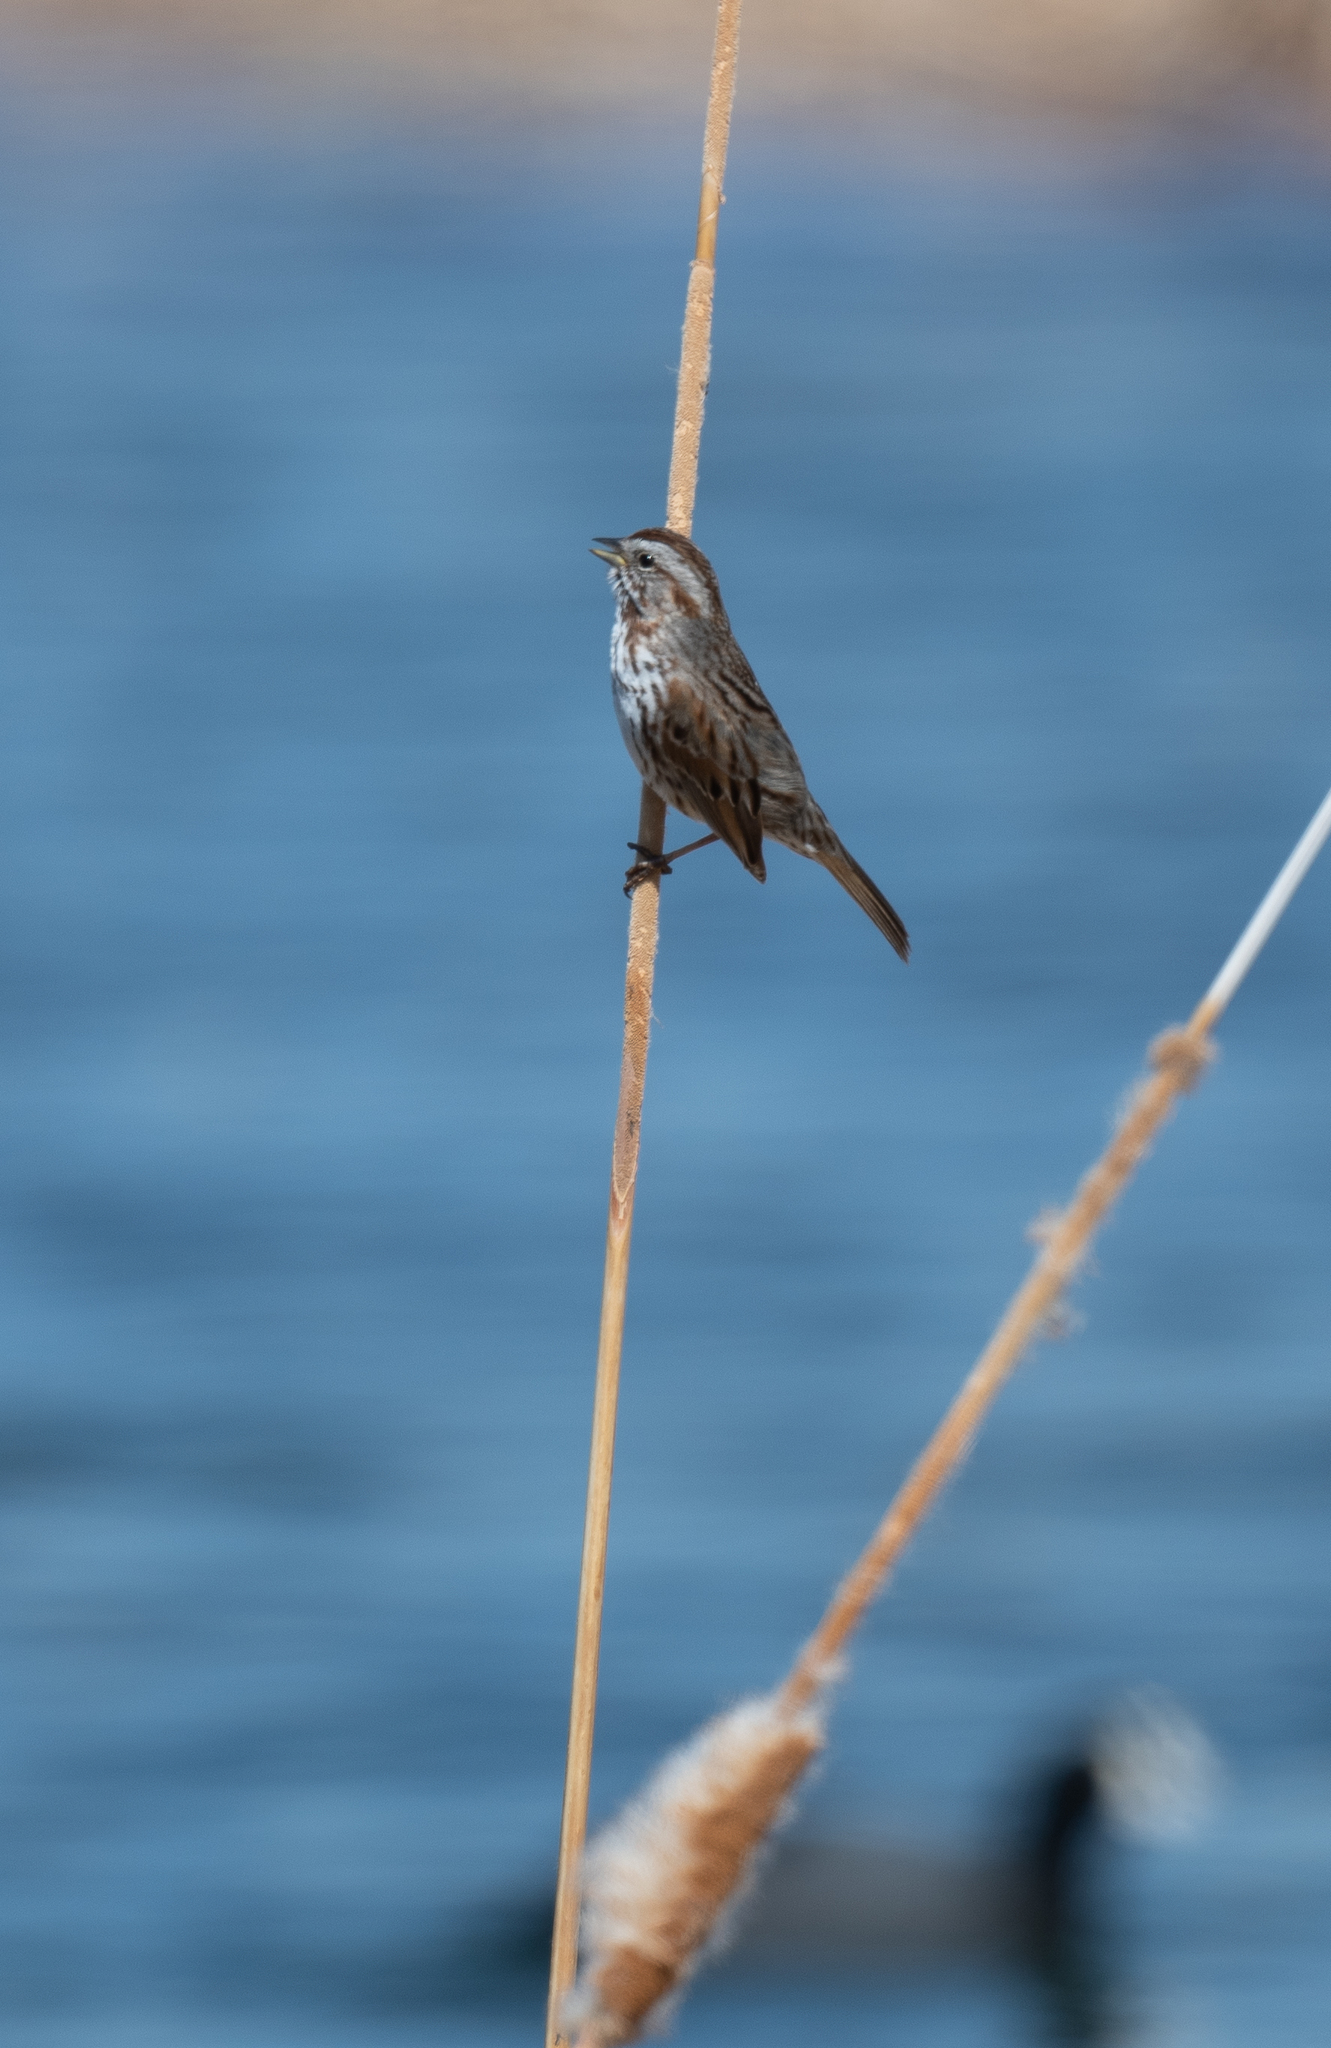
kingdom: Animalia
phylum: Chordata
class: Aves
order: Passeriformes
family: Passerellidae
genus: Melospiza
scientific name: Melospiza melodia
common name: Song sparrow
